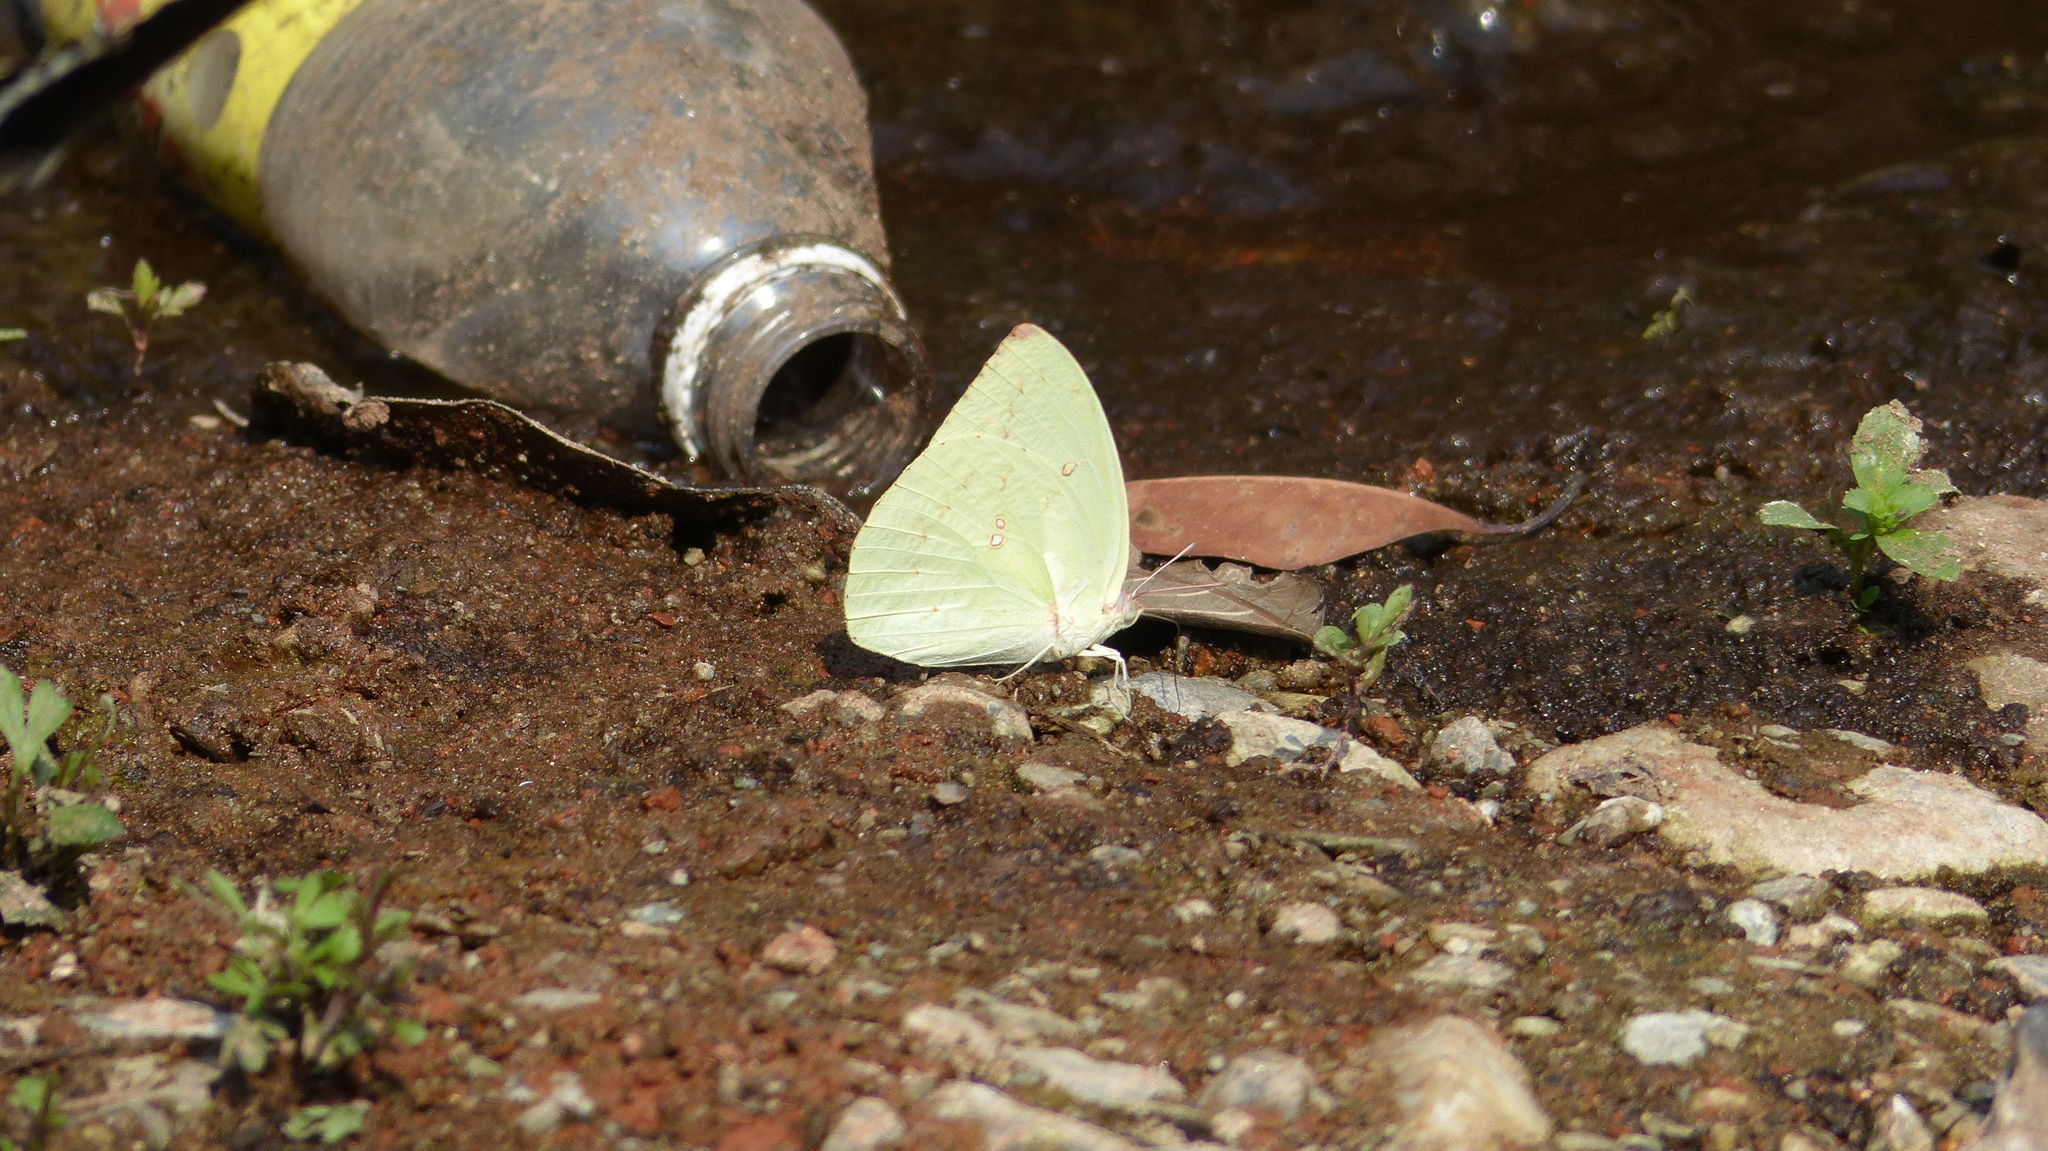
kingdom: Animalia
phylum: Arthropoda
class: Insecta
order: Lepidoptera
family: Pieridae
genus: Catopsilia
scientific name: Catopsilia pomona
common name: Common emigrant
